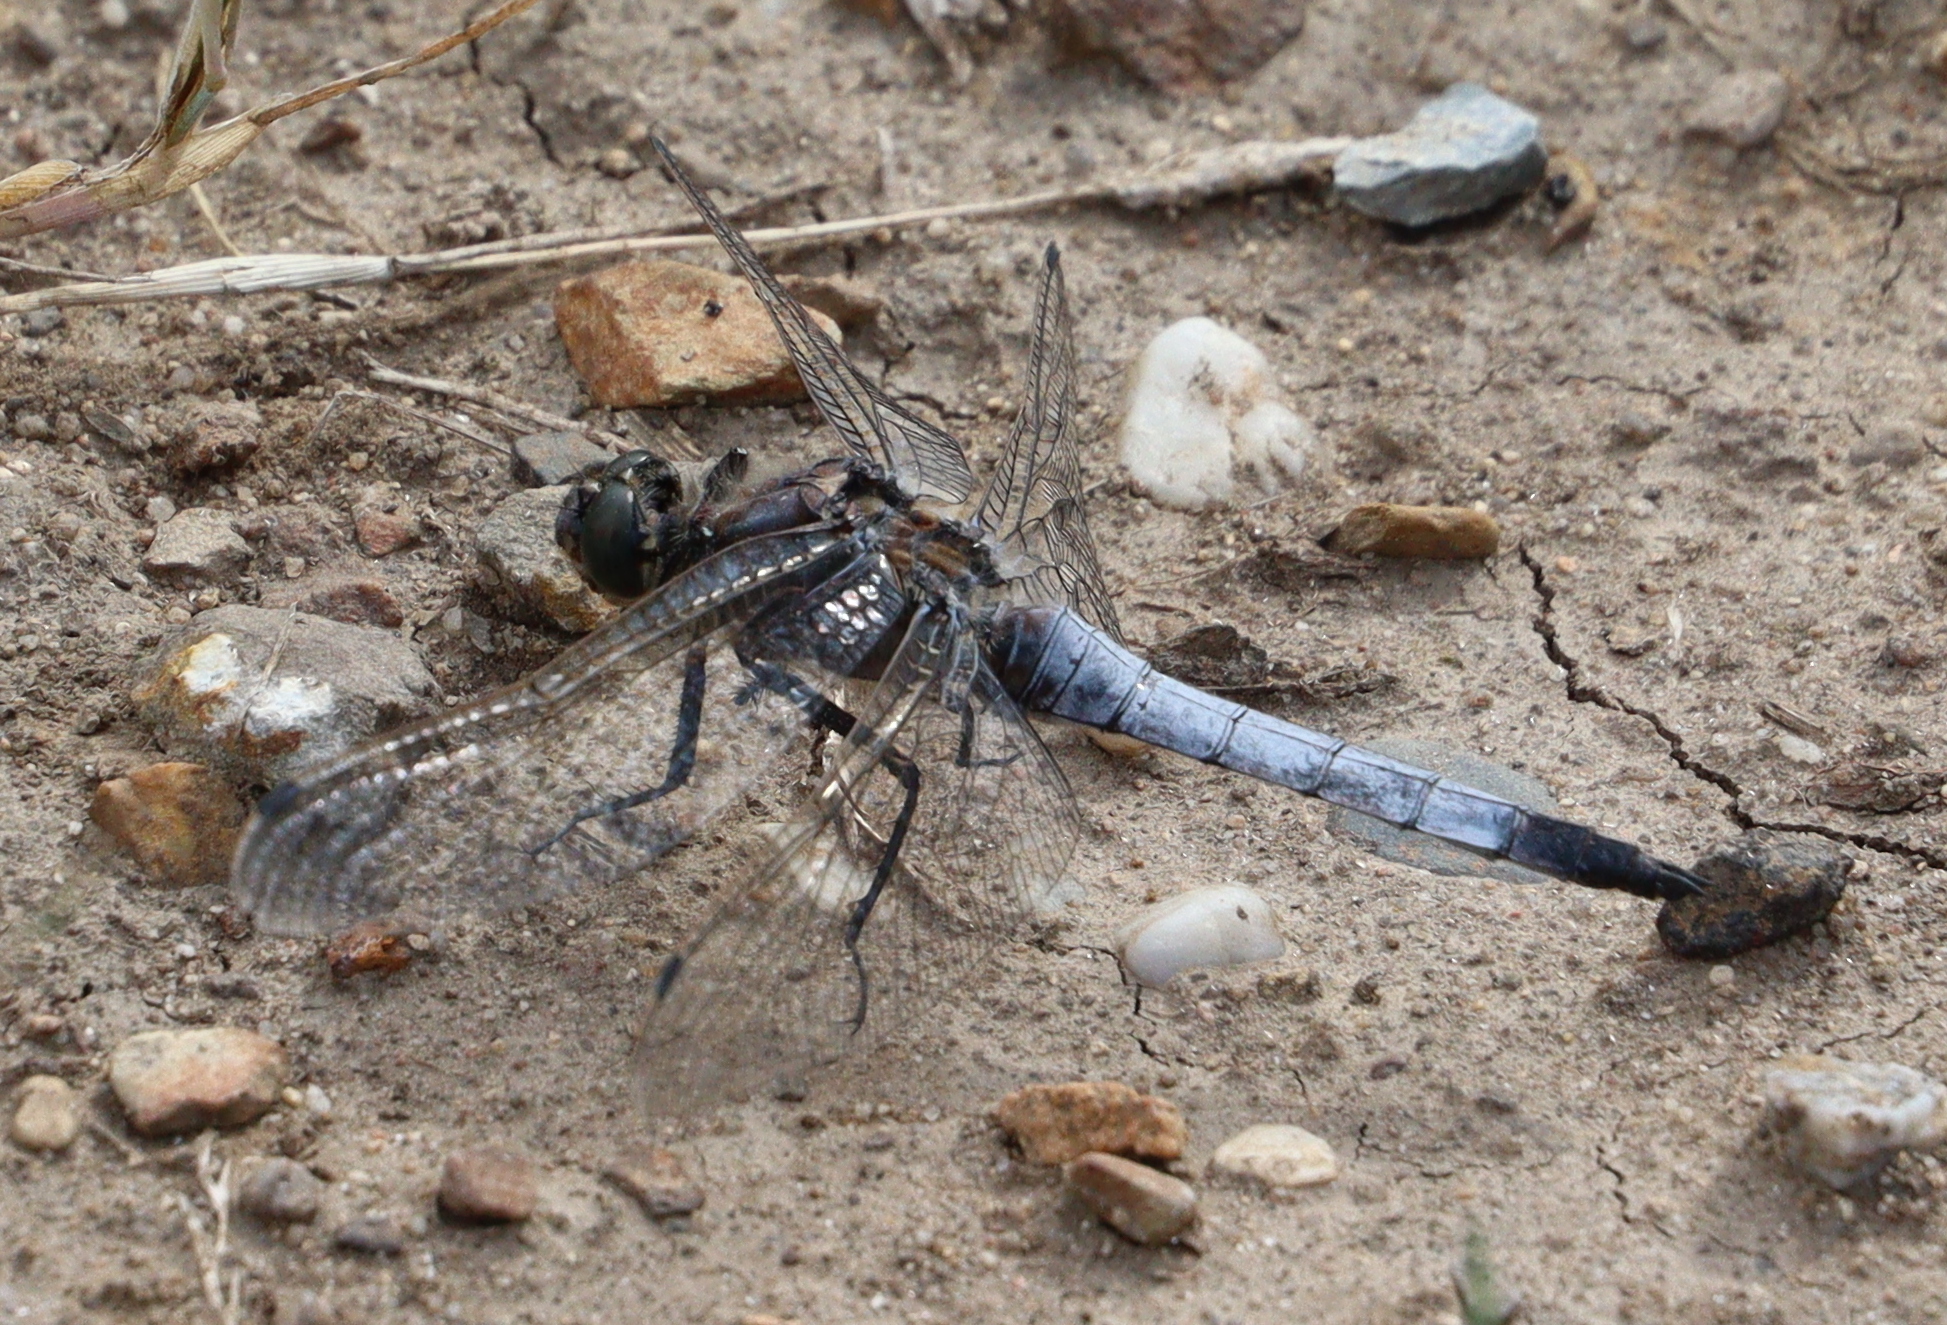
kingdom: Animalia
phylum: Arthropoda
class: Insecta
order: Odonata
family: Libellulidae
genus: Orthetrum
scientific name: Orthetrum cancellatum
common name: Black-tailed skimmer
